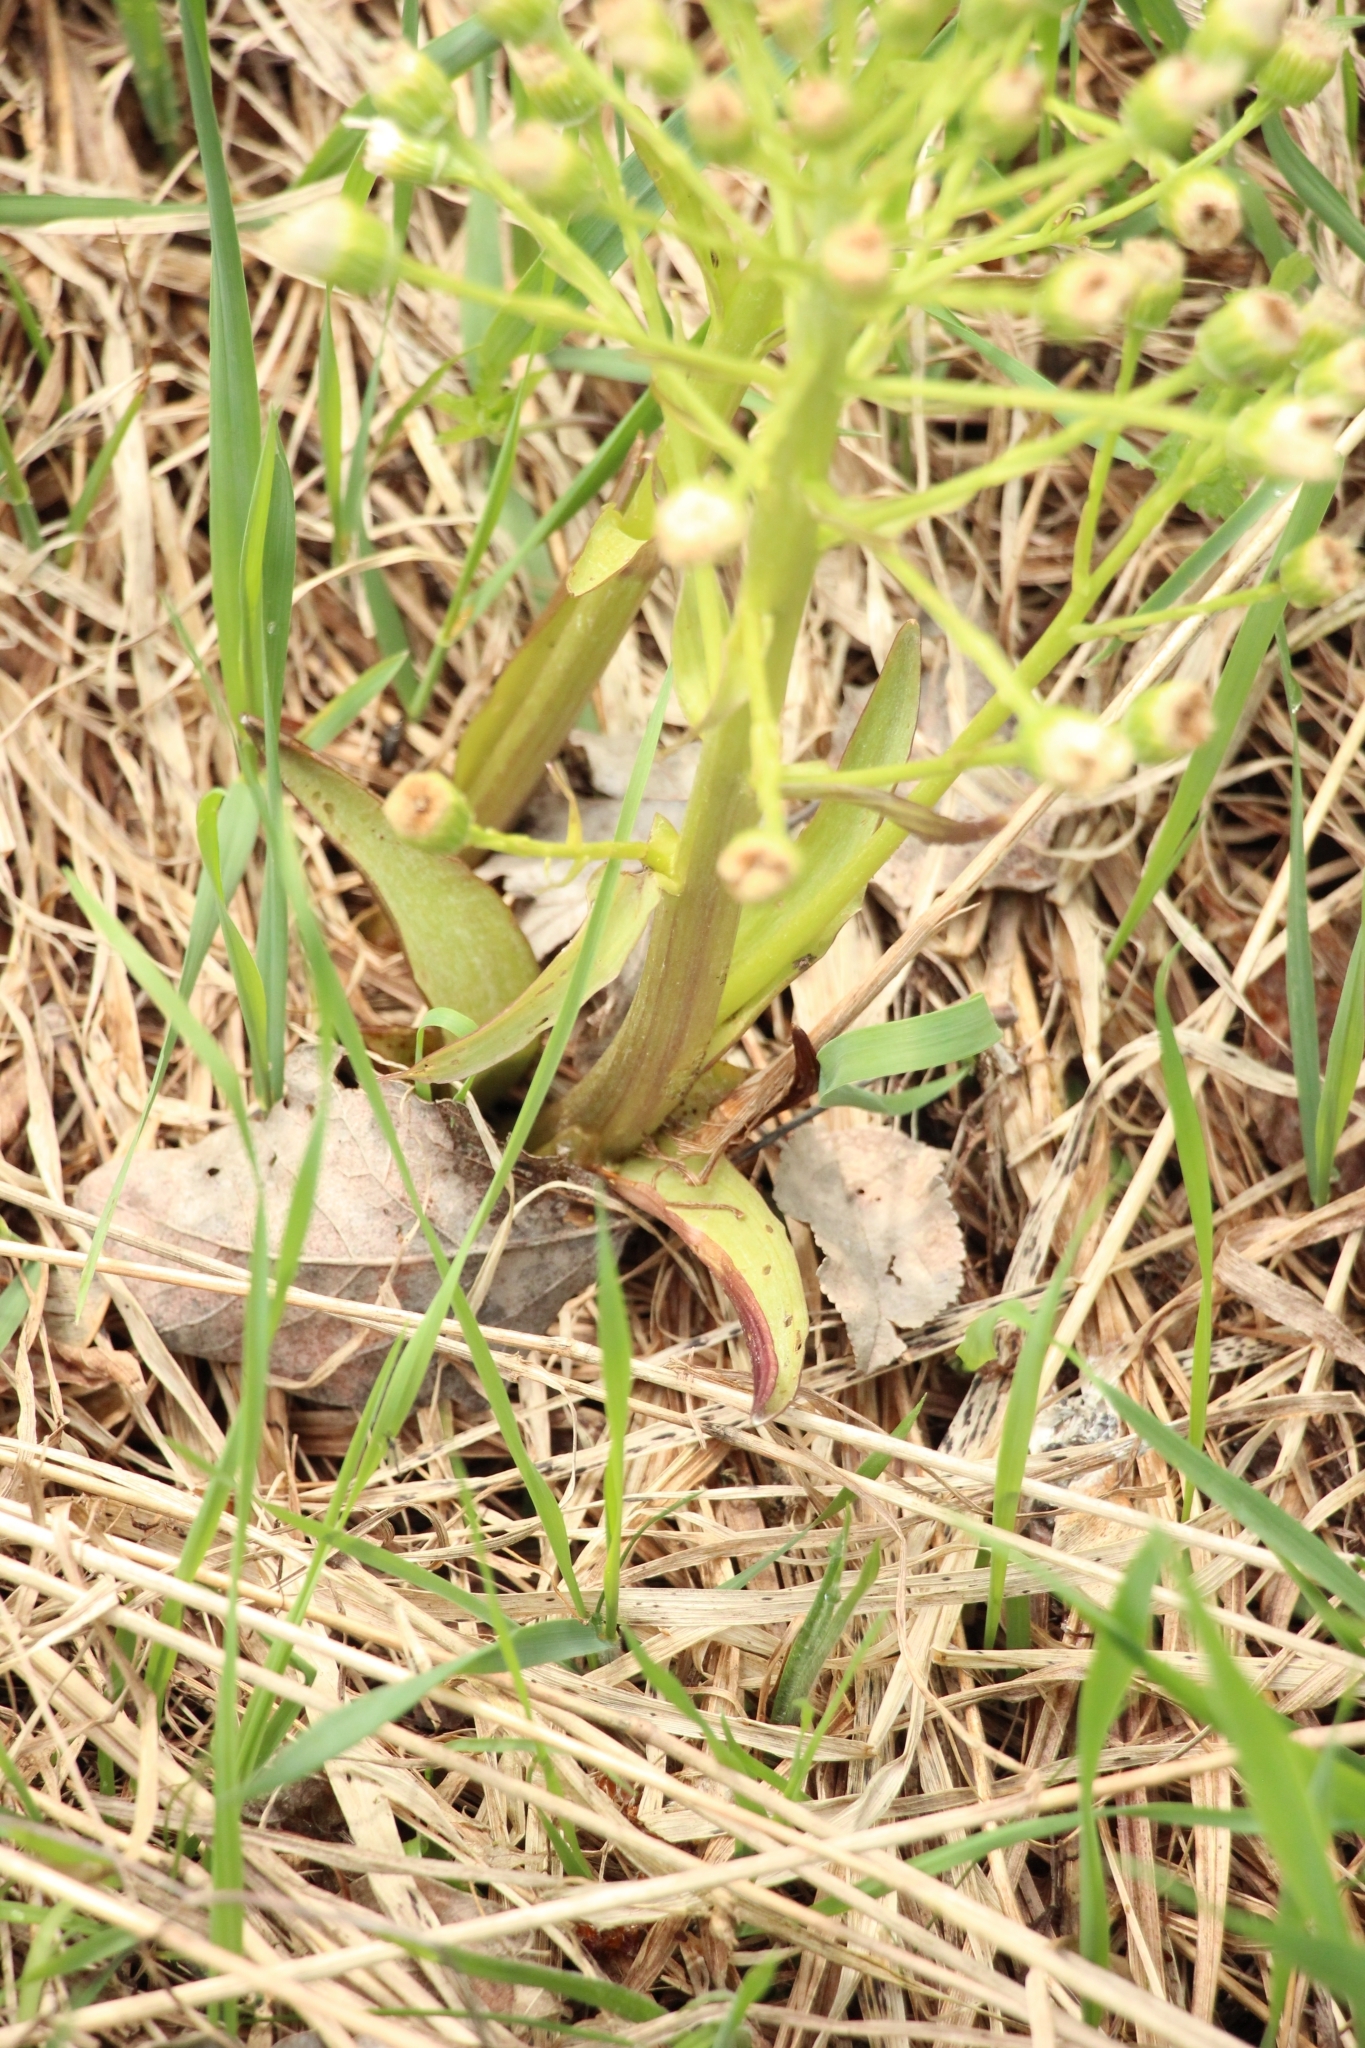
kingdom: Plantae
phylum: Tracheophyta
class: Magnoliopsida
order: Asterales
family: Asteraceae
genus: Petasites
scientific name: Petasites spurius
